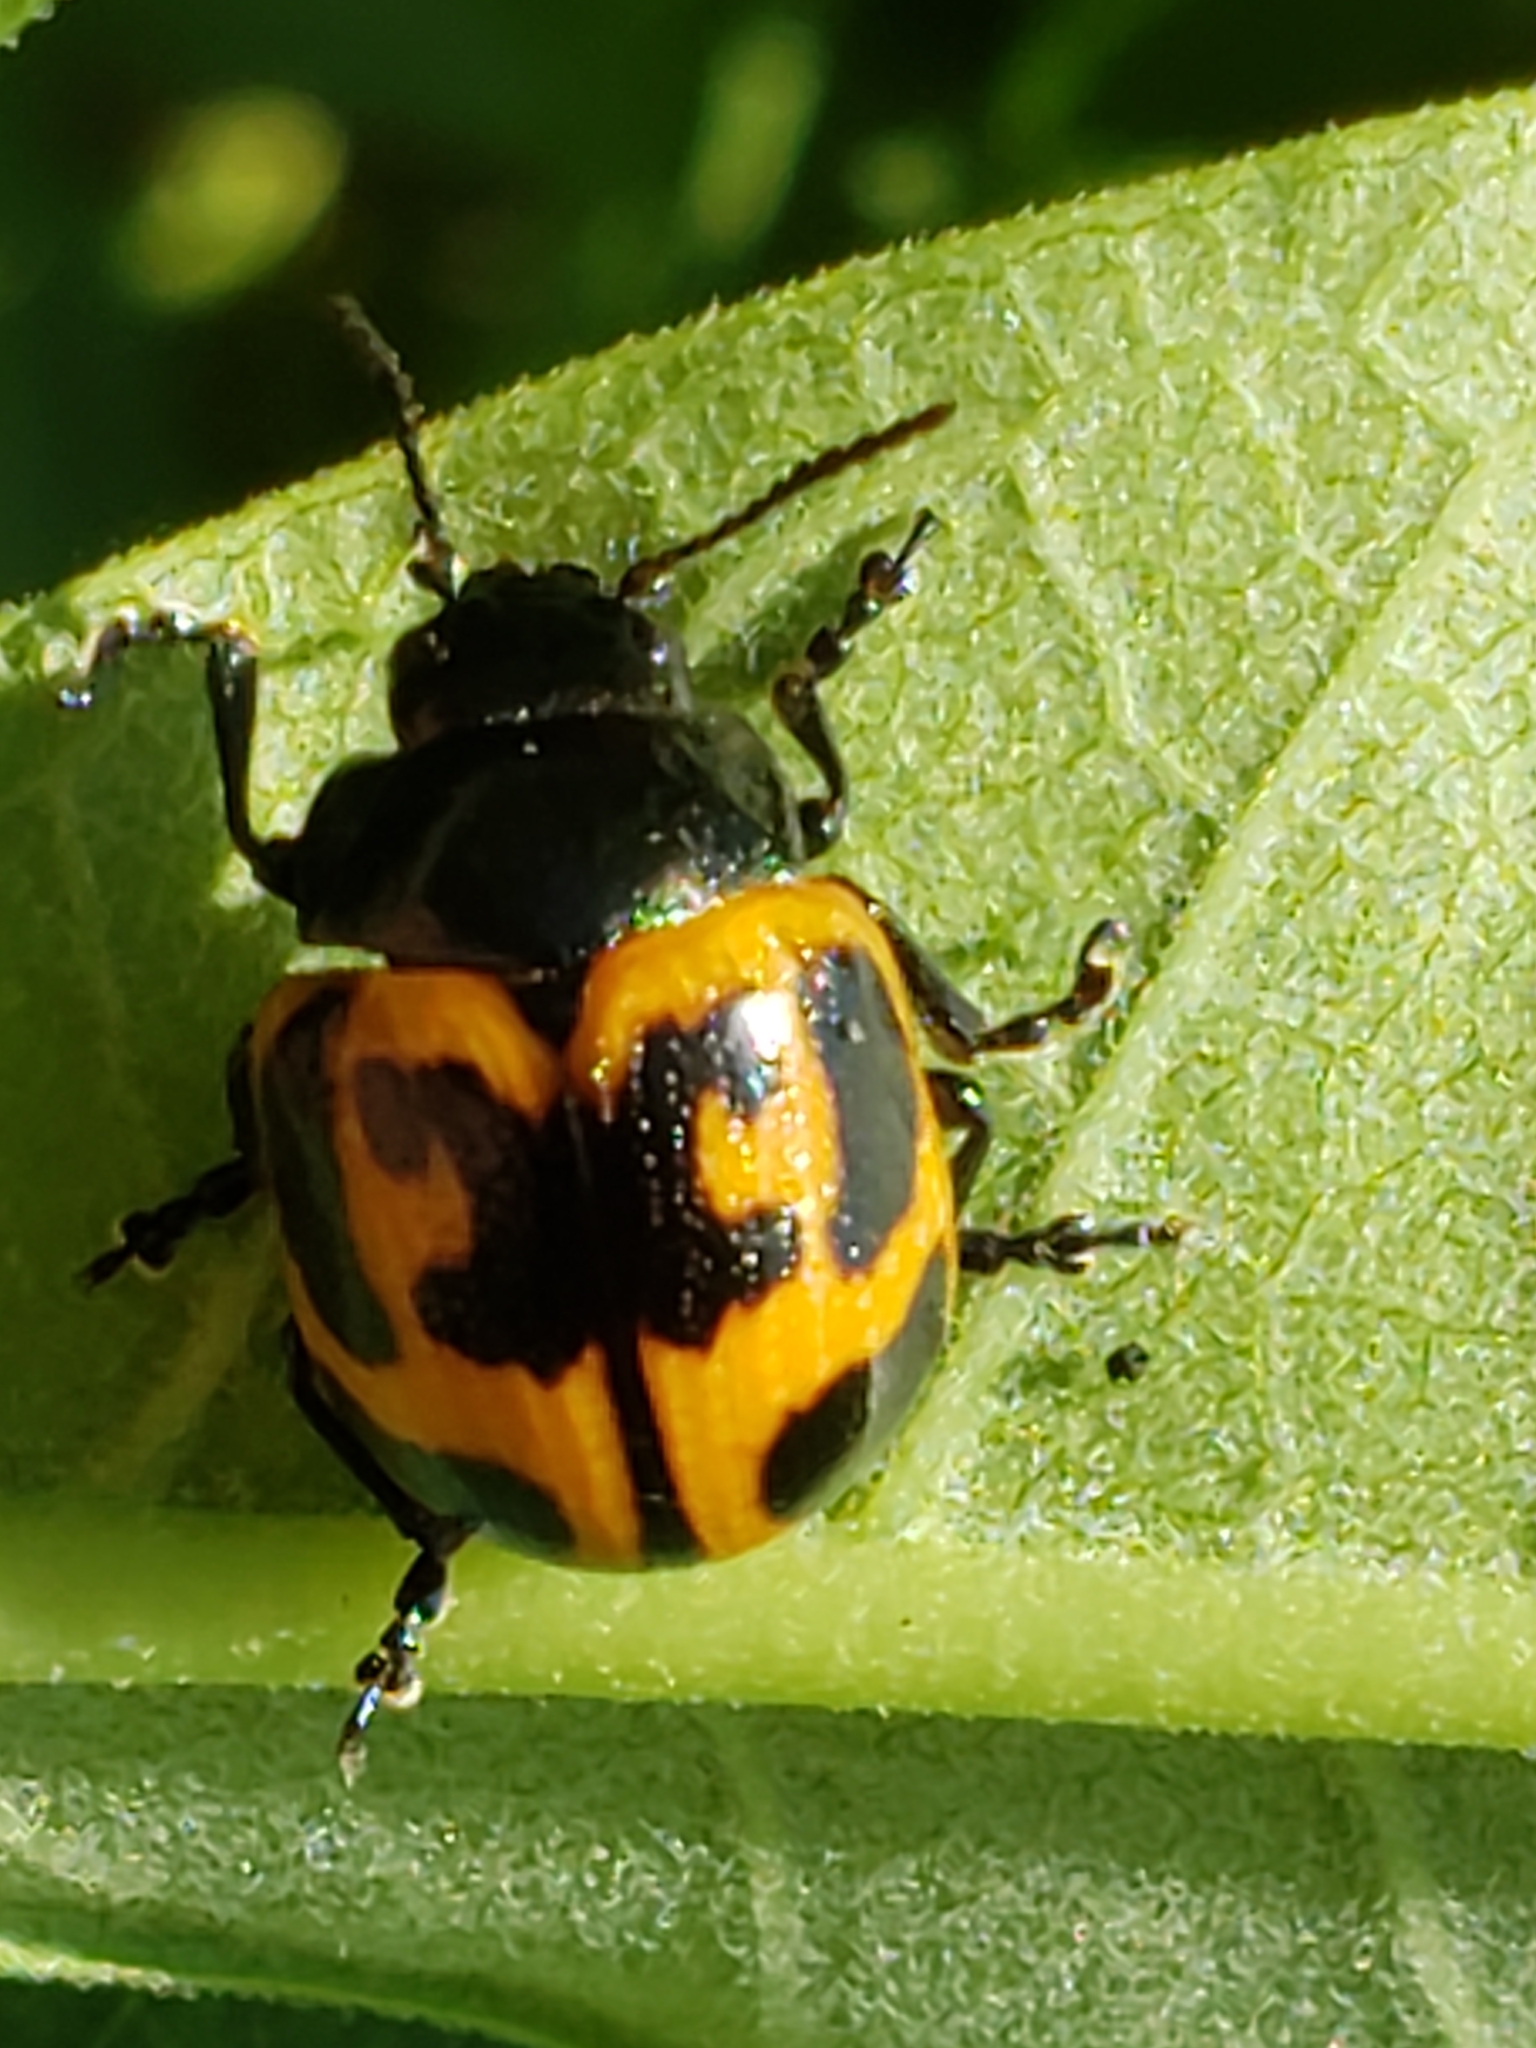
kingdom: Animalia
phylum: Arthropoda
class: Insecta
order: Coleoptera
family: Chrysomelidae
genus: Labidomera
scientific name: Labidomera clivicollis
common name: Swamp milkweed leaf beetle
